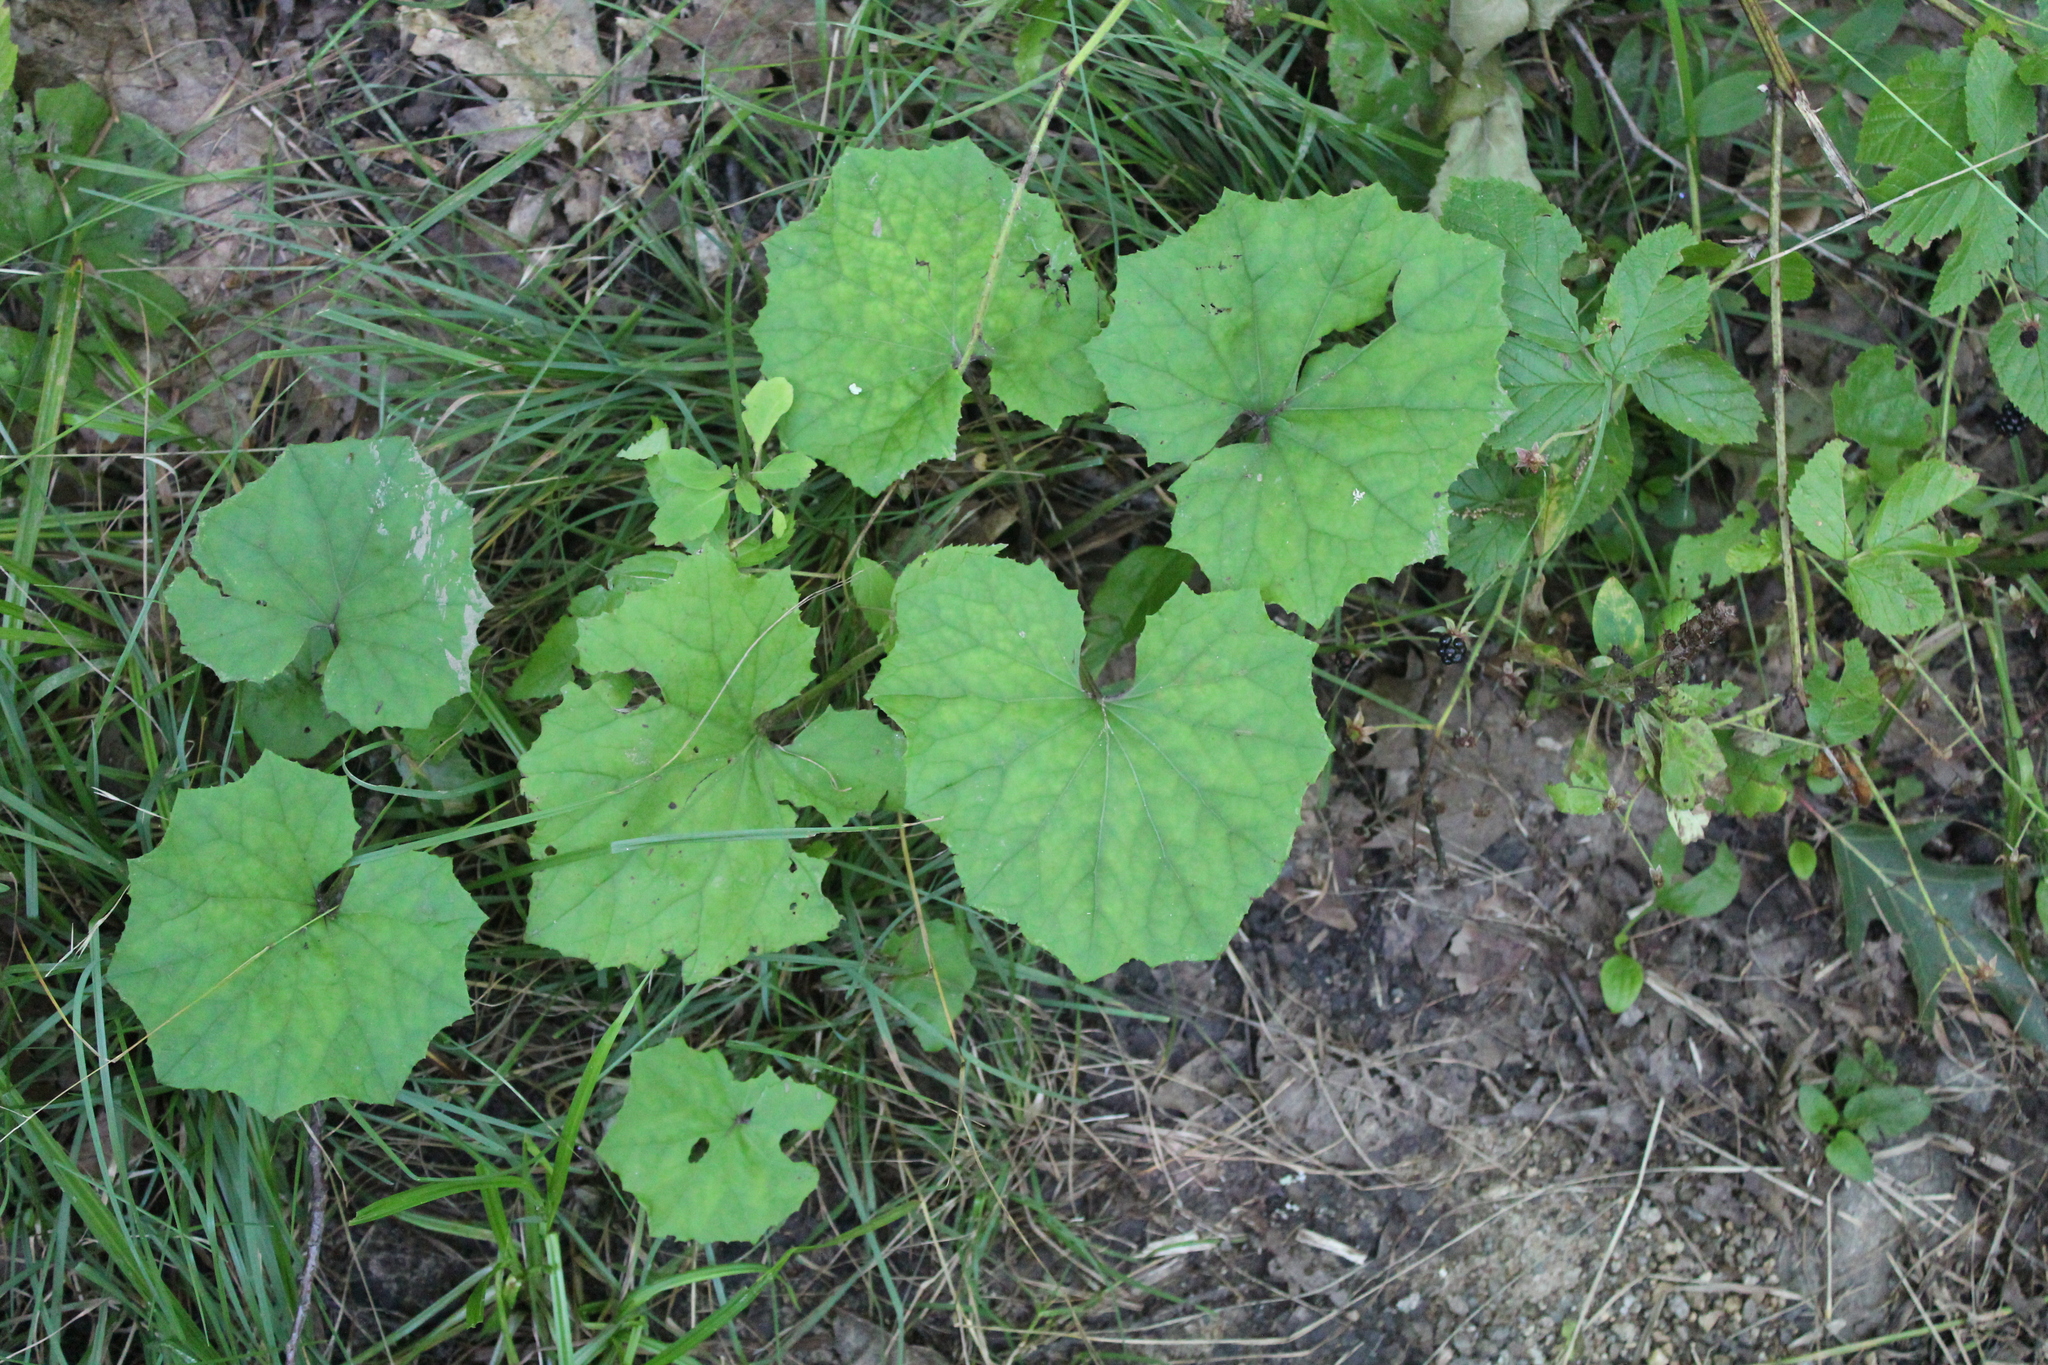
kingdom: Plantae
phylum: Tracheophyta
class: Magnoliopsida
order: Asterales
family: Asteraceae
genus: Tussilago
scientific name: Tussilago farfara
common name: Coltsfoot
